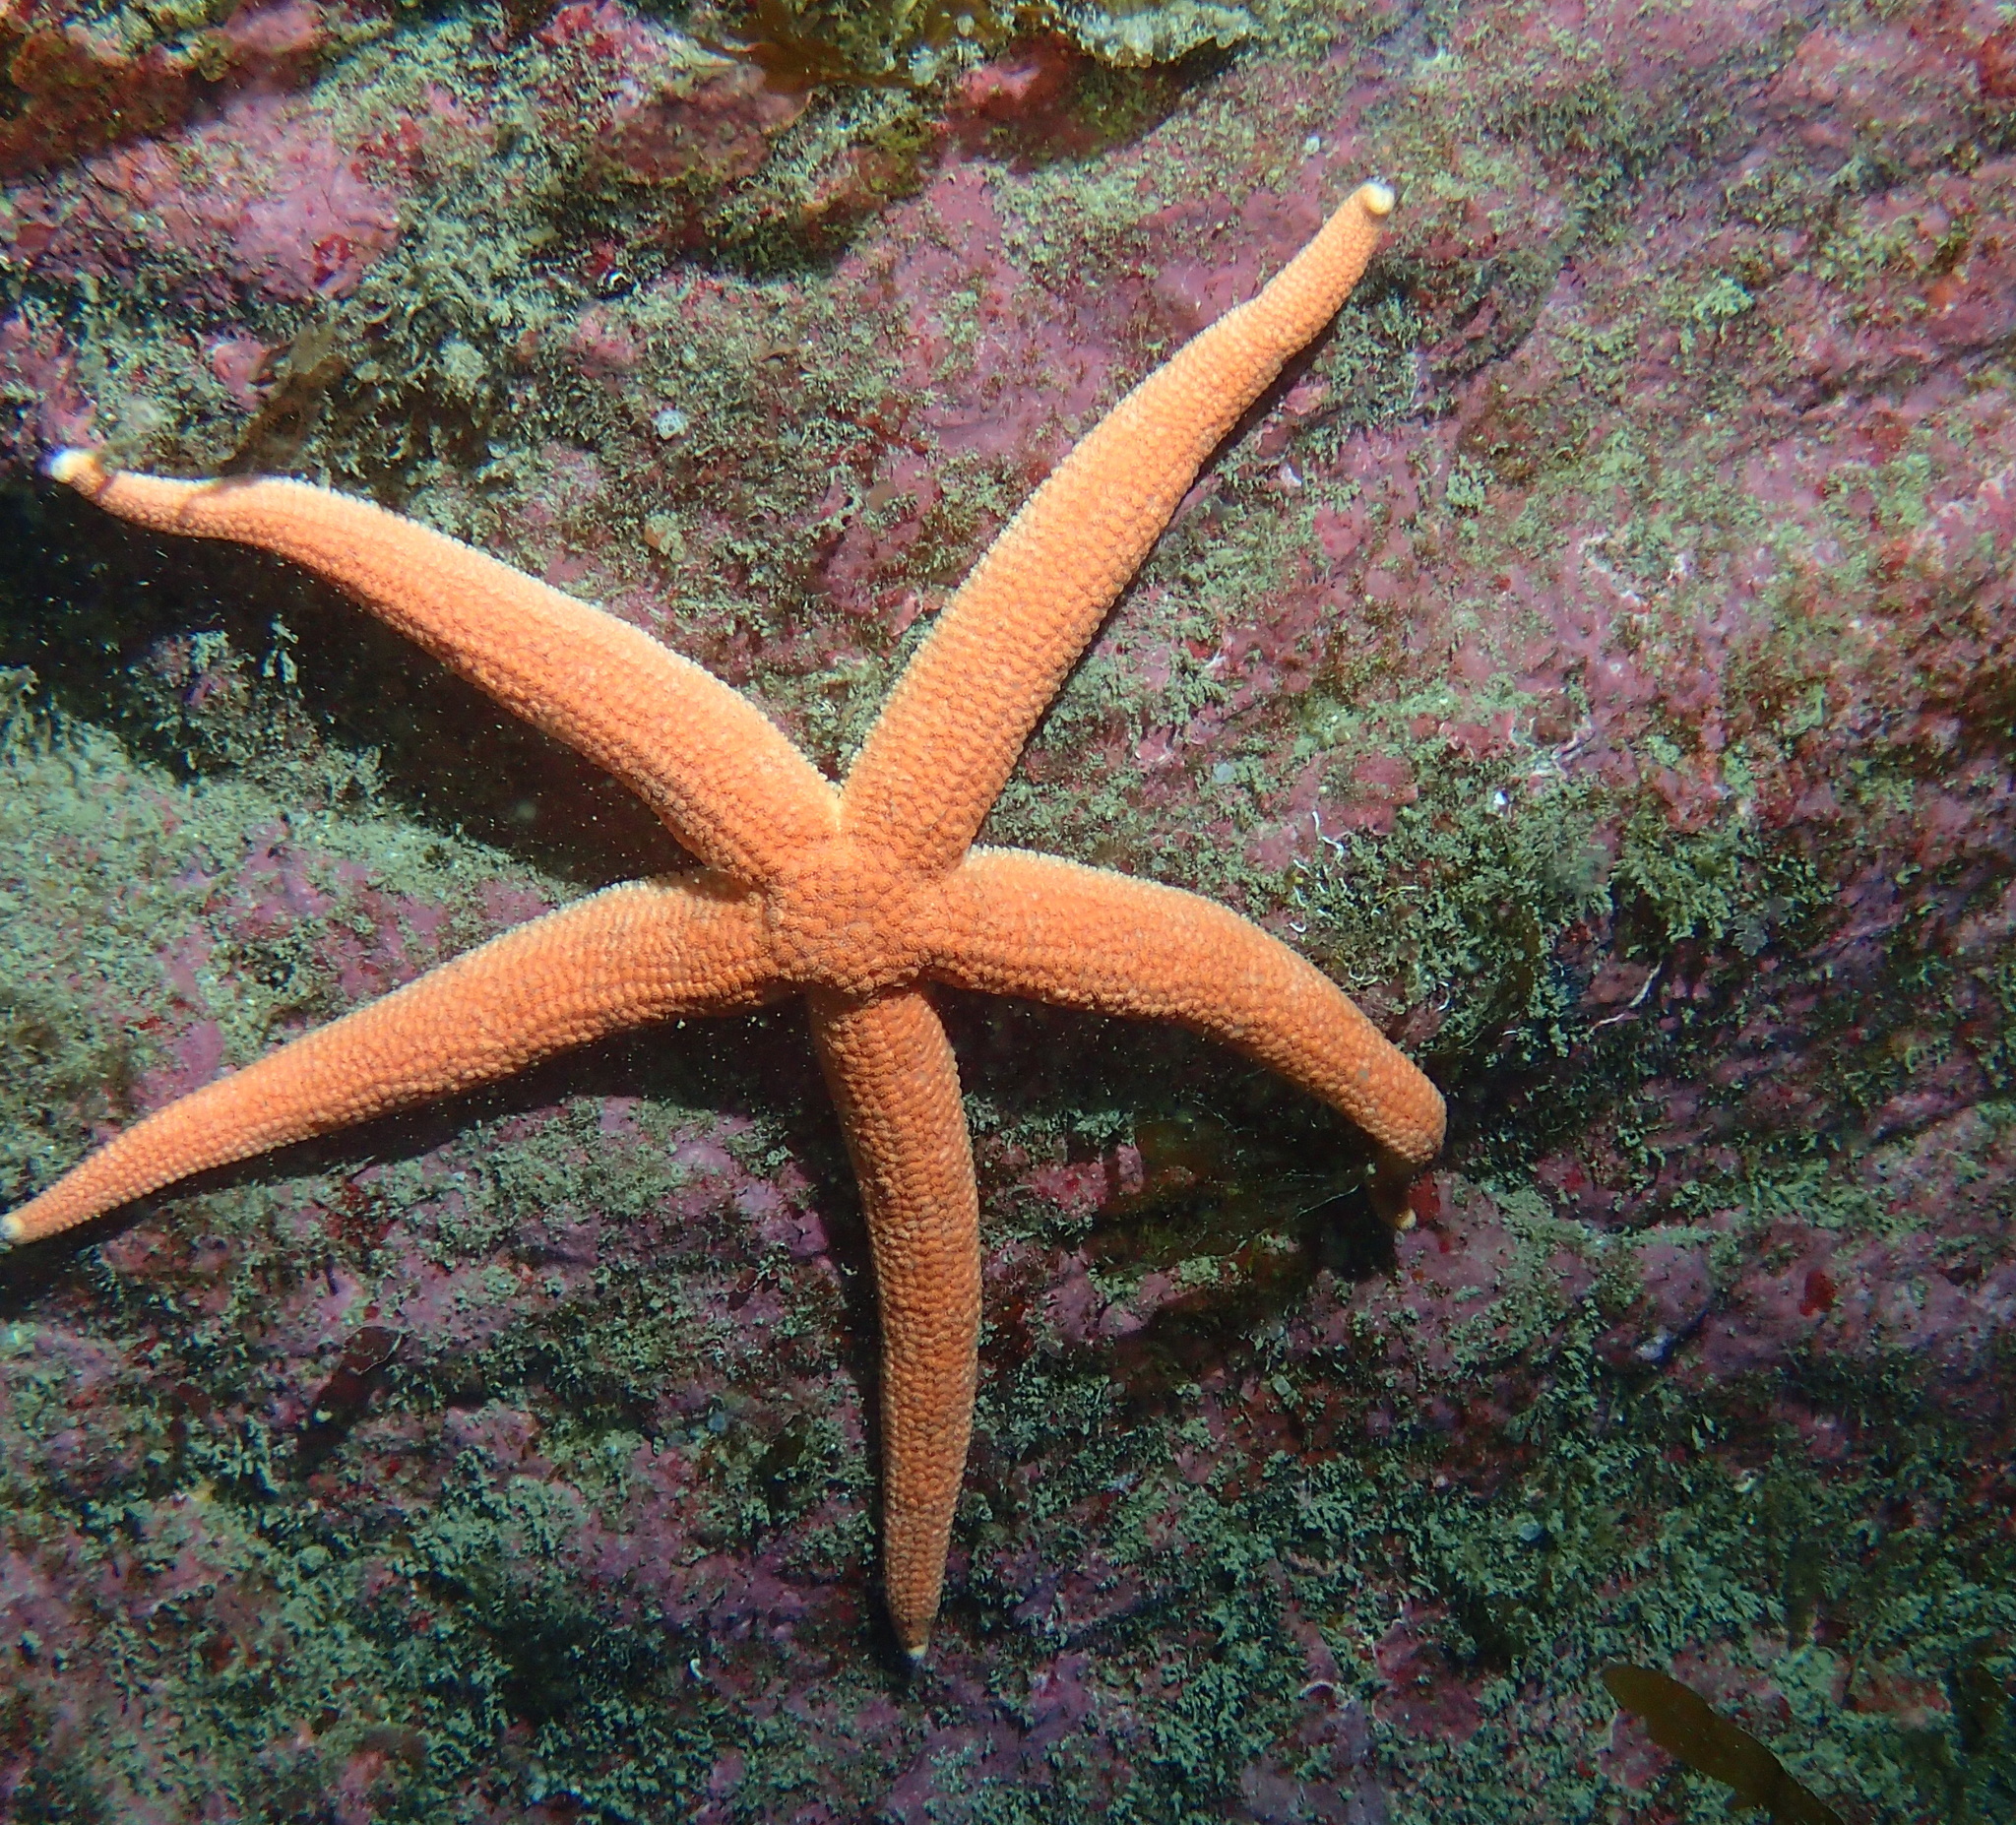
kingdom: Animalia
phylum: Echinodermata
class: Asteroidea
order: Forcipulatida
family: Stichasteridae
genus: Stichastrella
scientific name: Stichastrella rosea
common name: Rosy starfish
